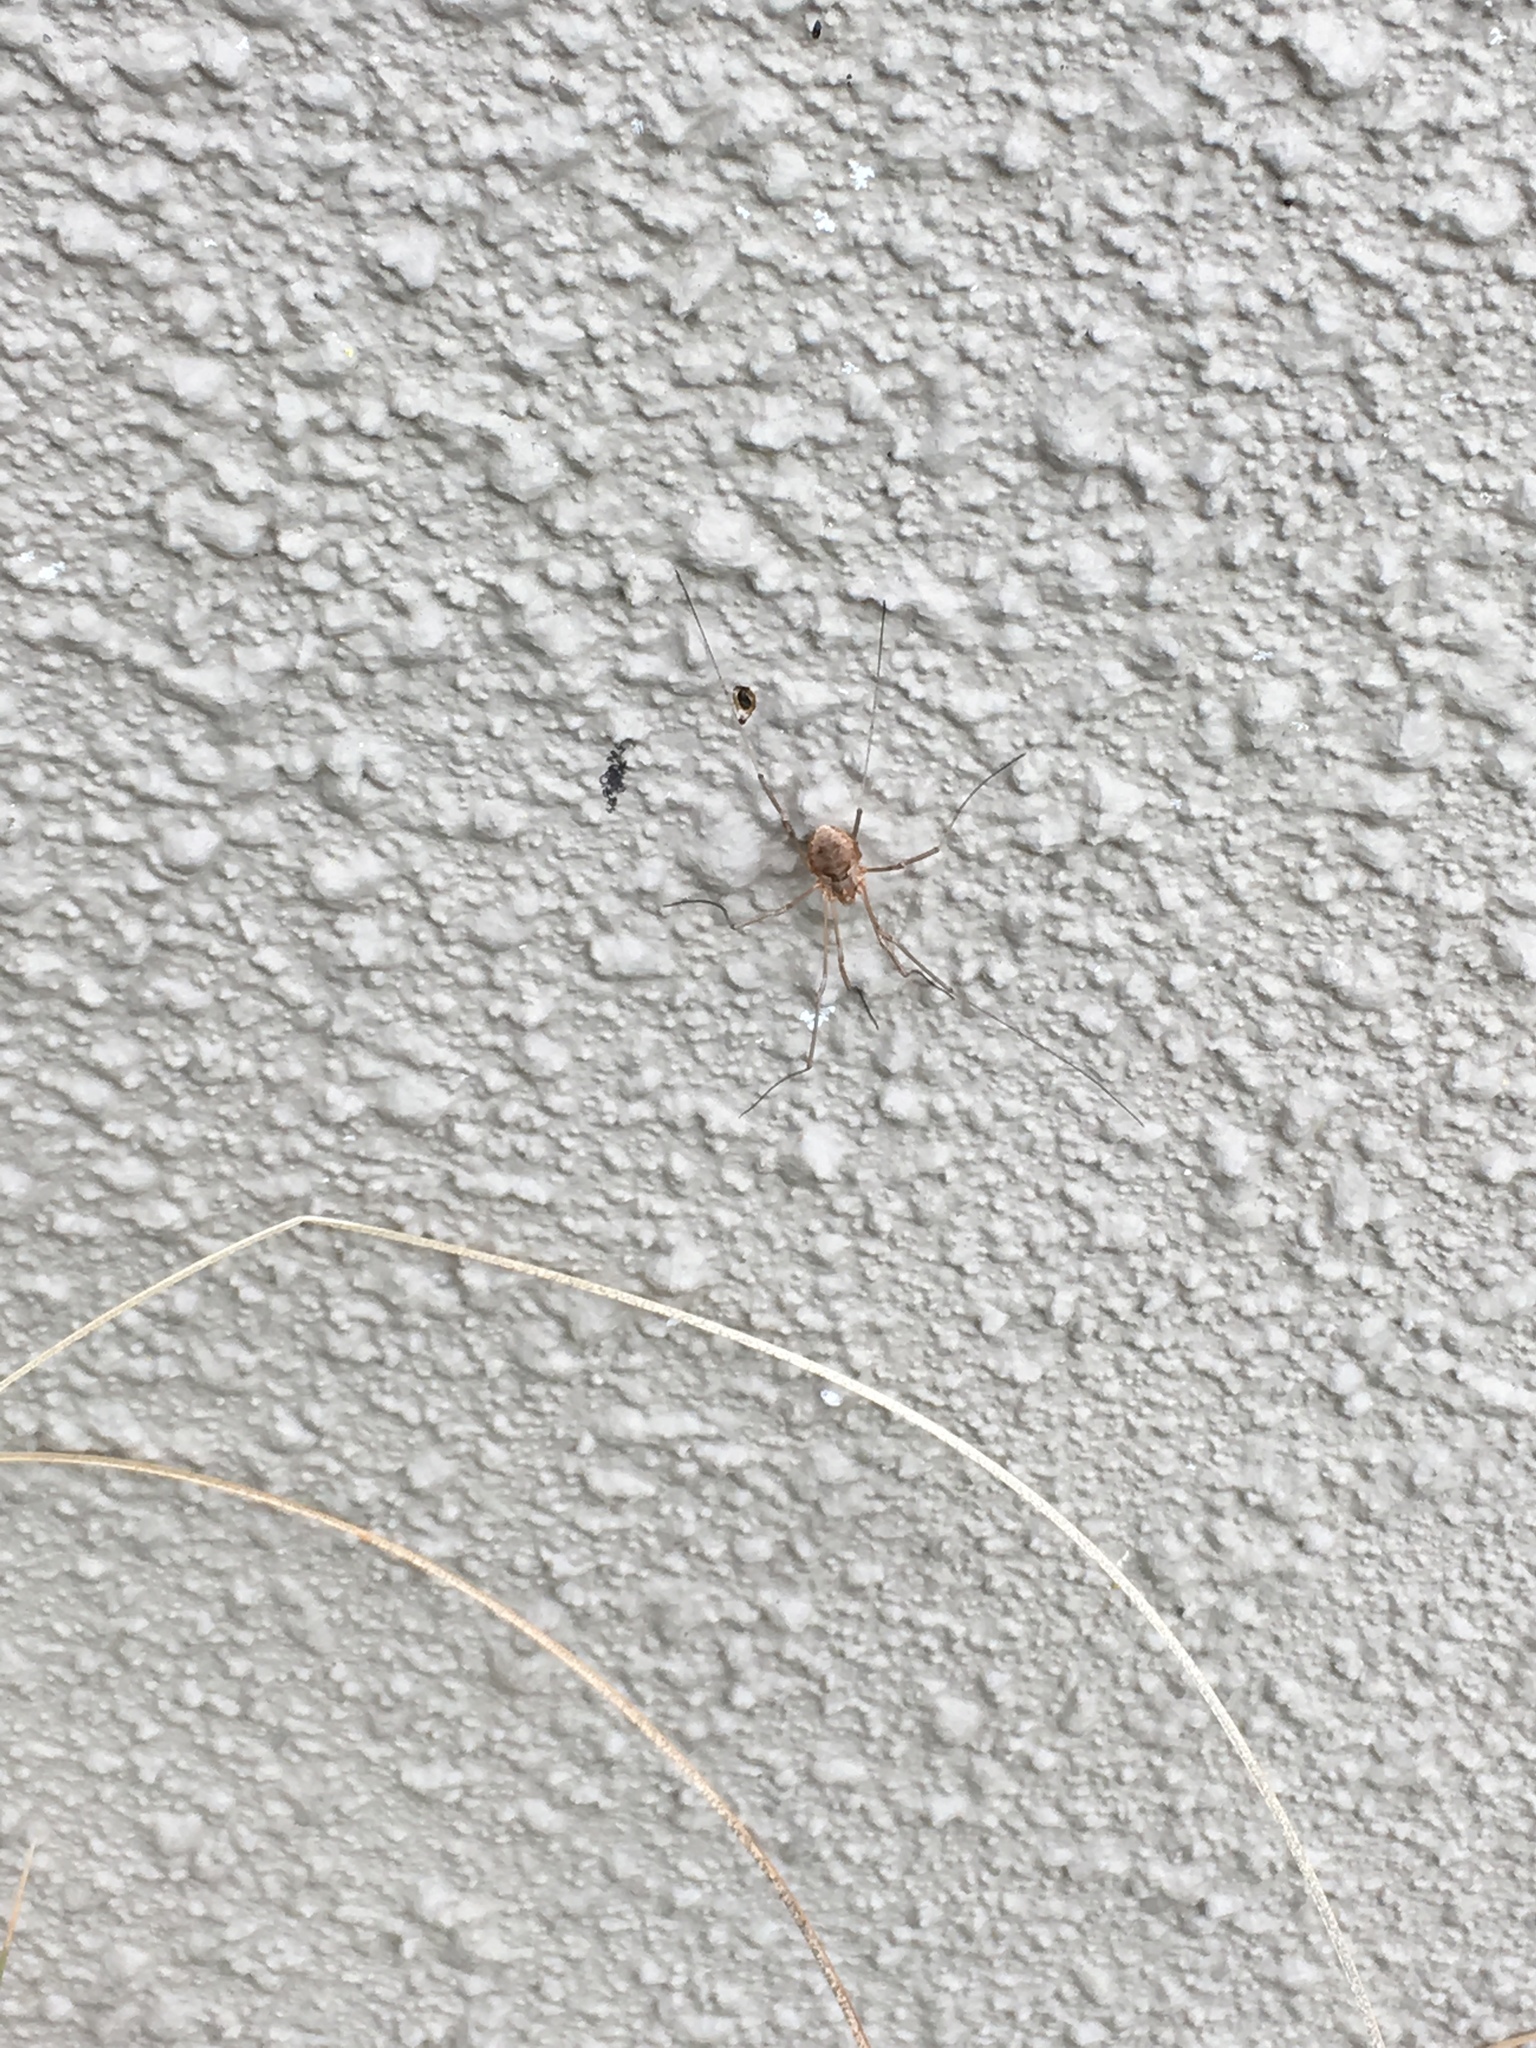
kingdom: Animalia
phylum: Arthropoda
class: Arachnida
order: Opiliones
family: Phalangiidae
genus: Phalangium
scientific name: Phalangium opilio
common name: Daddy longleg
